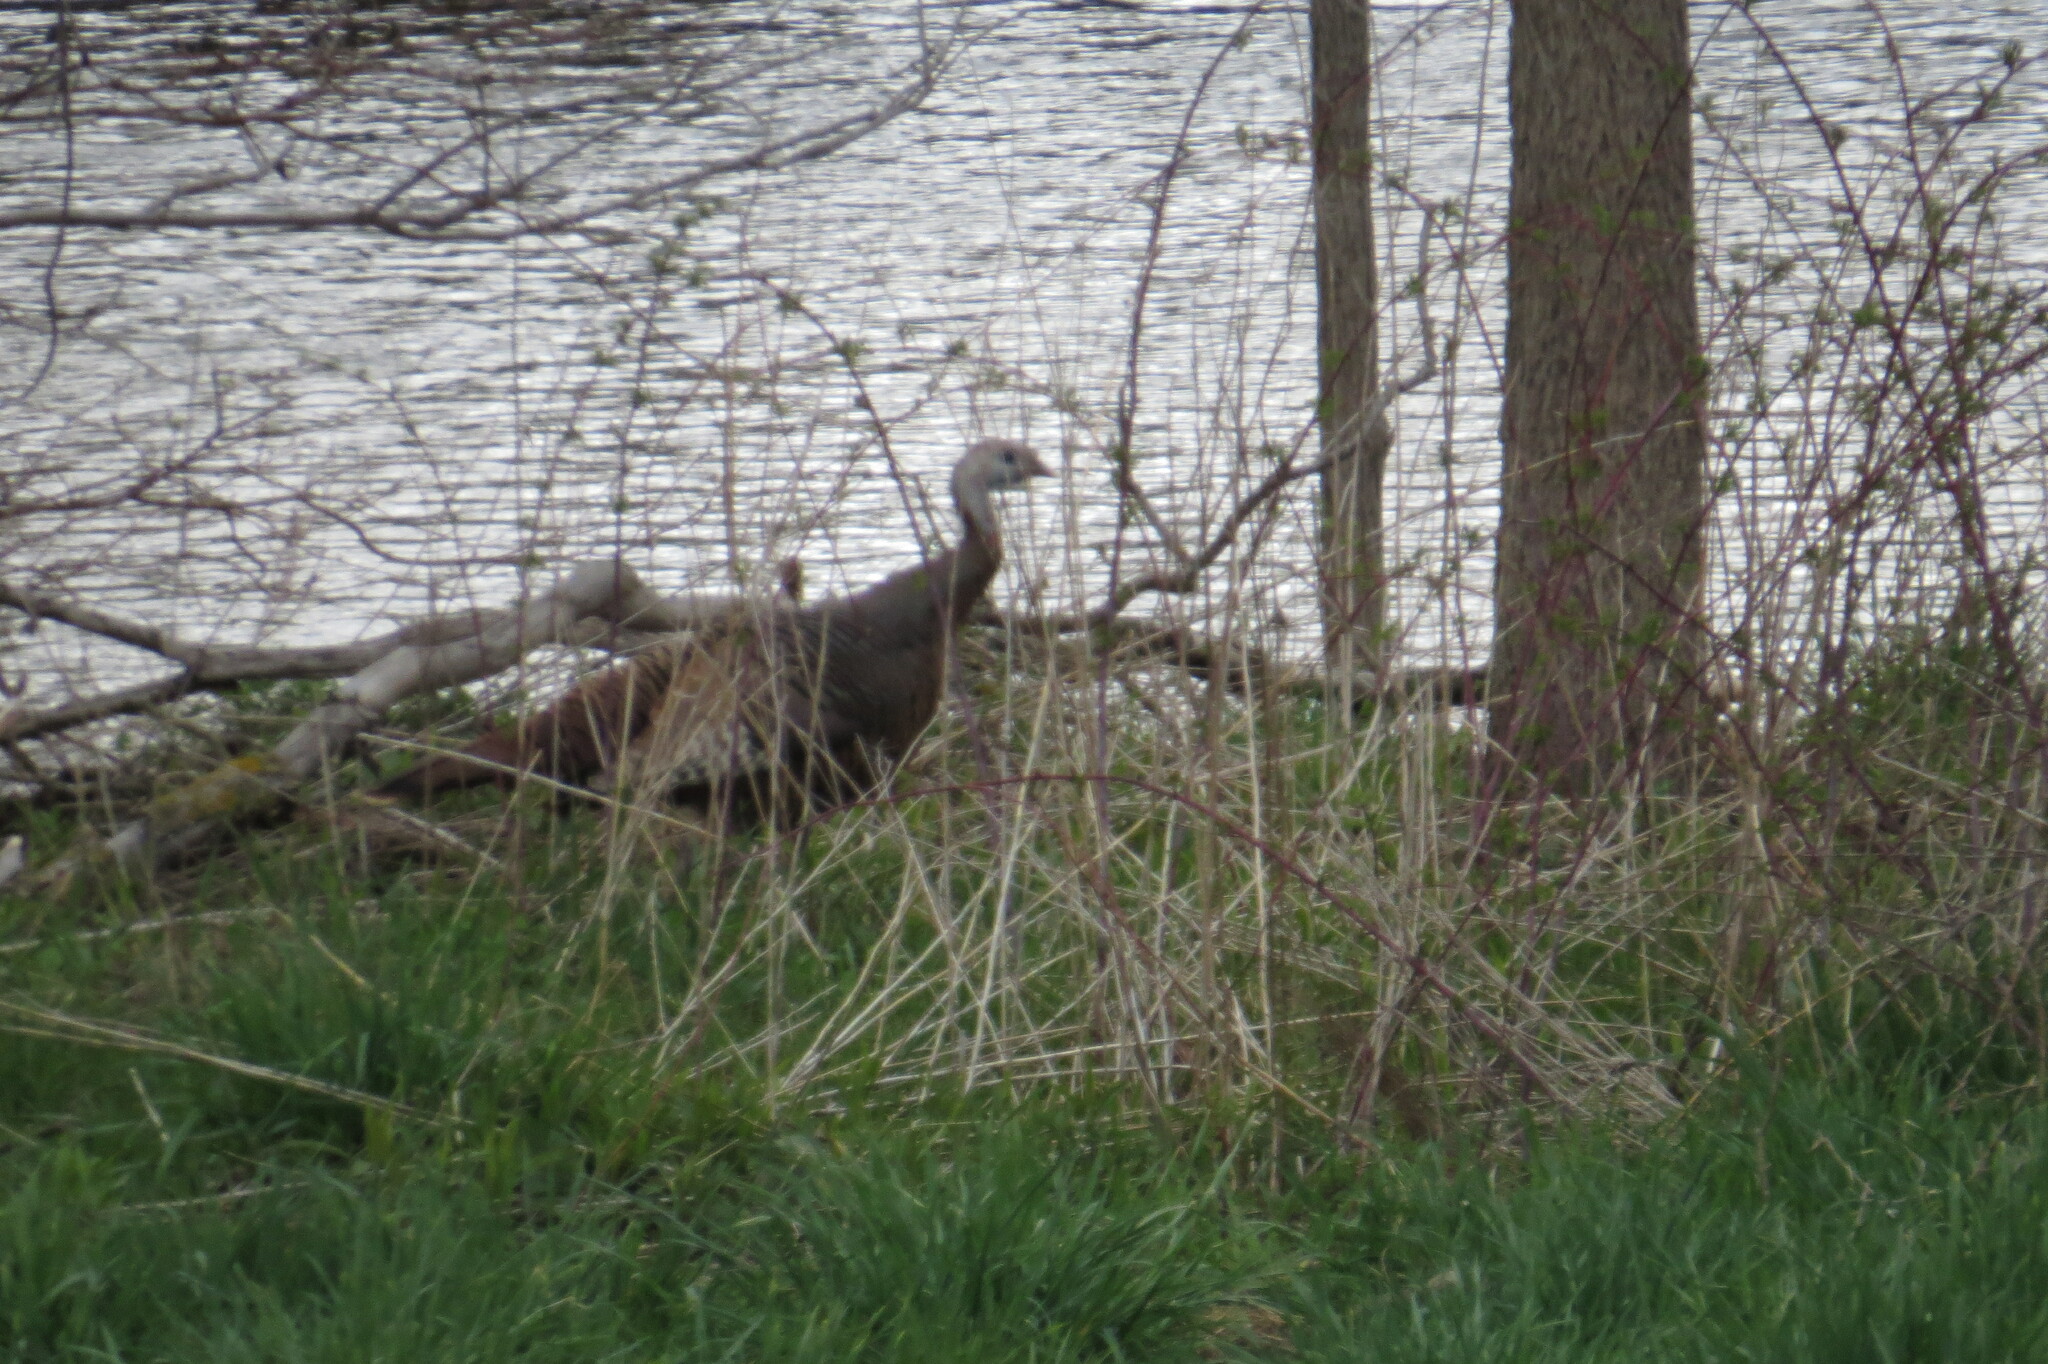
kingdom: Animalia
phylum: Chordata
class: Aves
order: Galliformes
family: Phasianidae
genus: Meleagris
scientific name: Meleagris gallopavo
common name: Wild turkey
